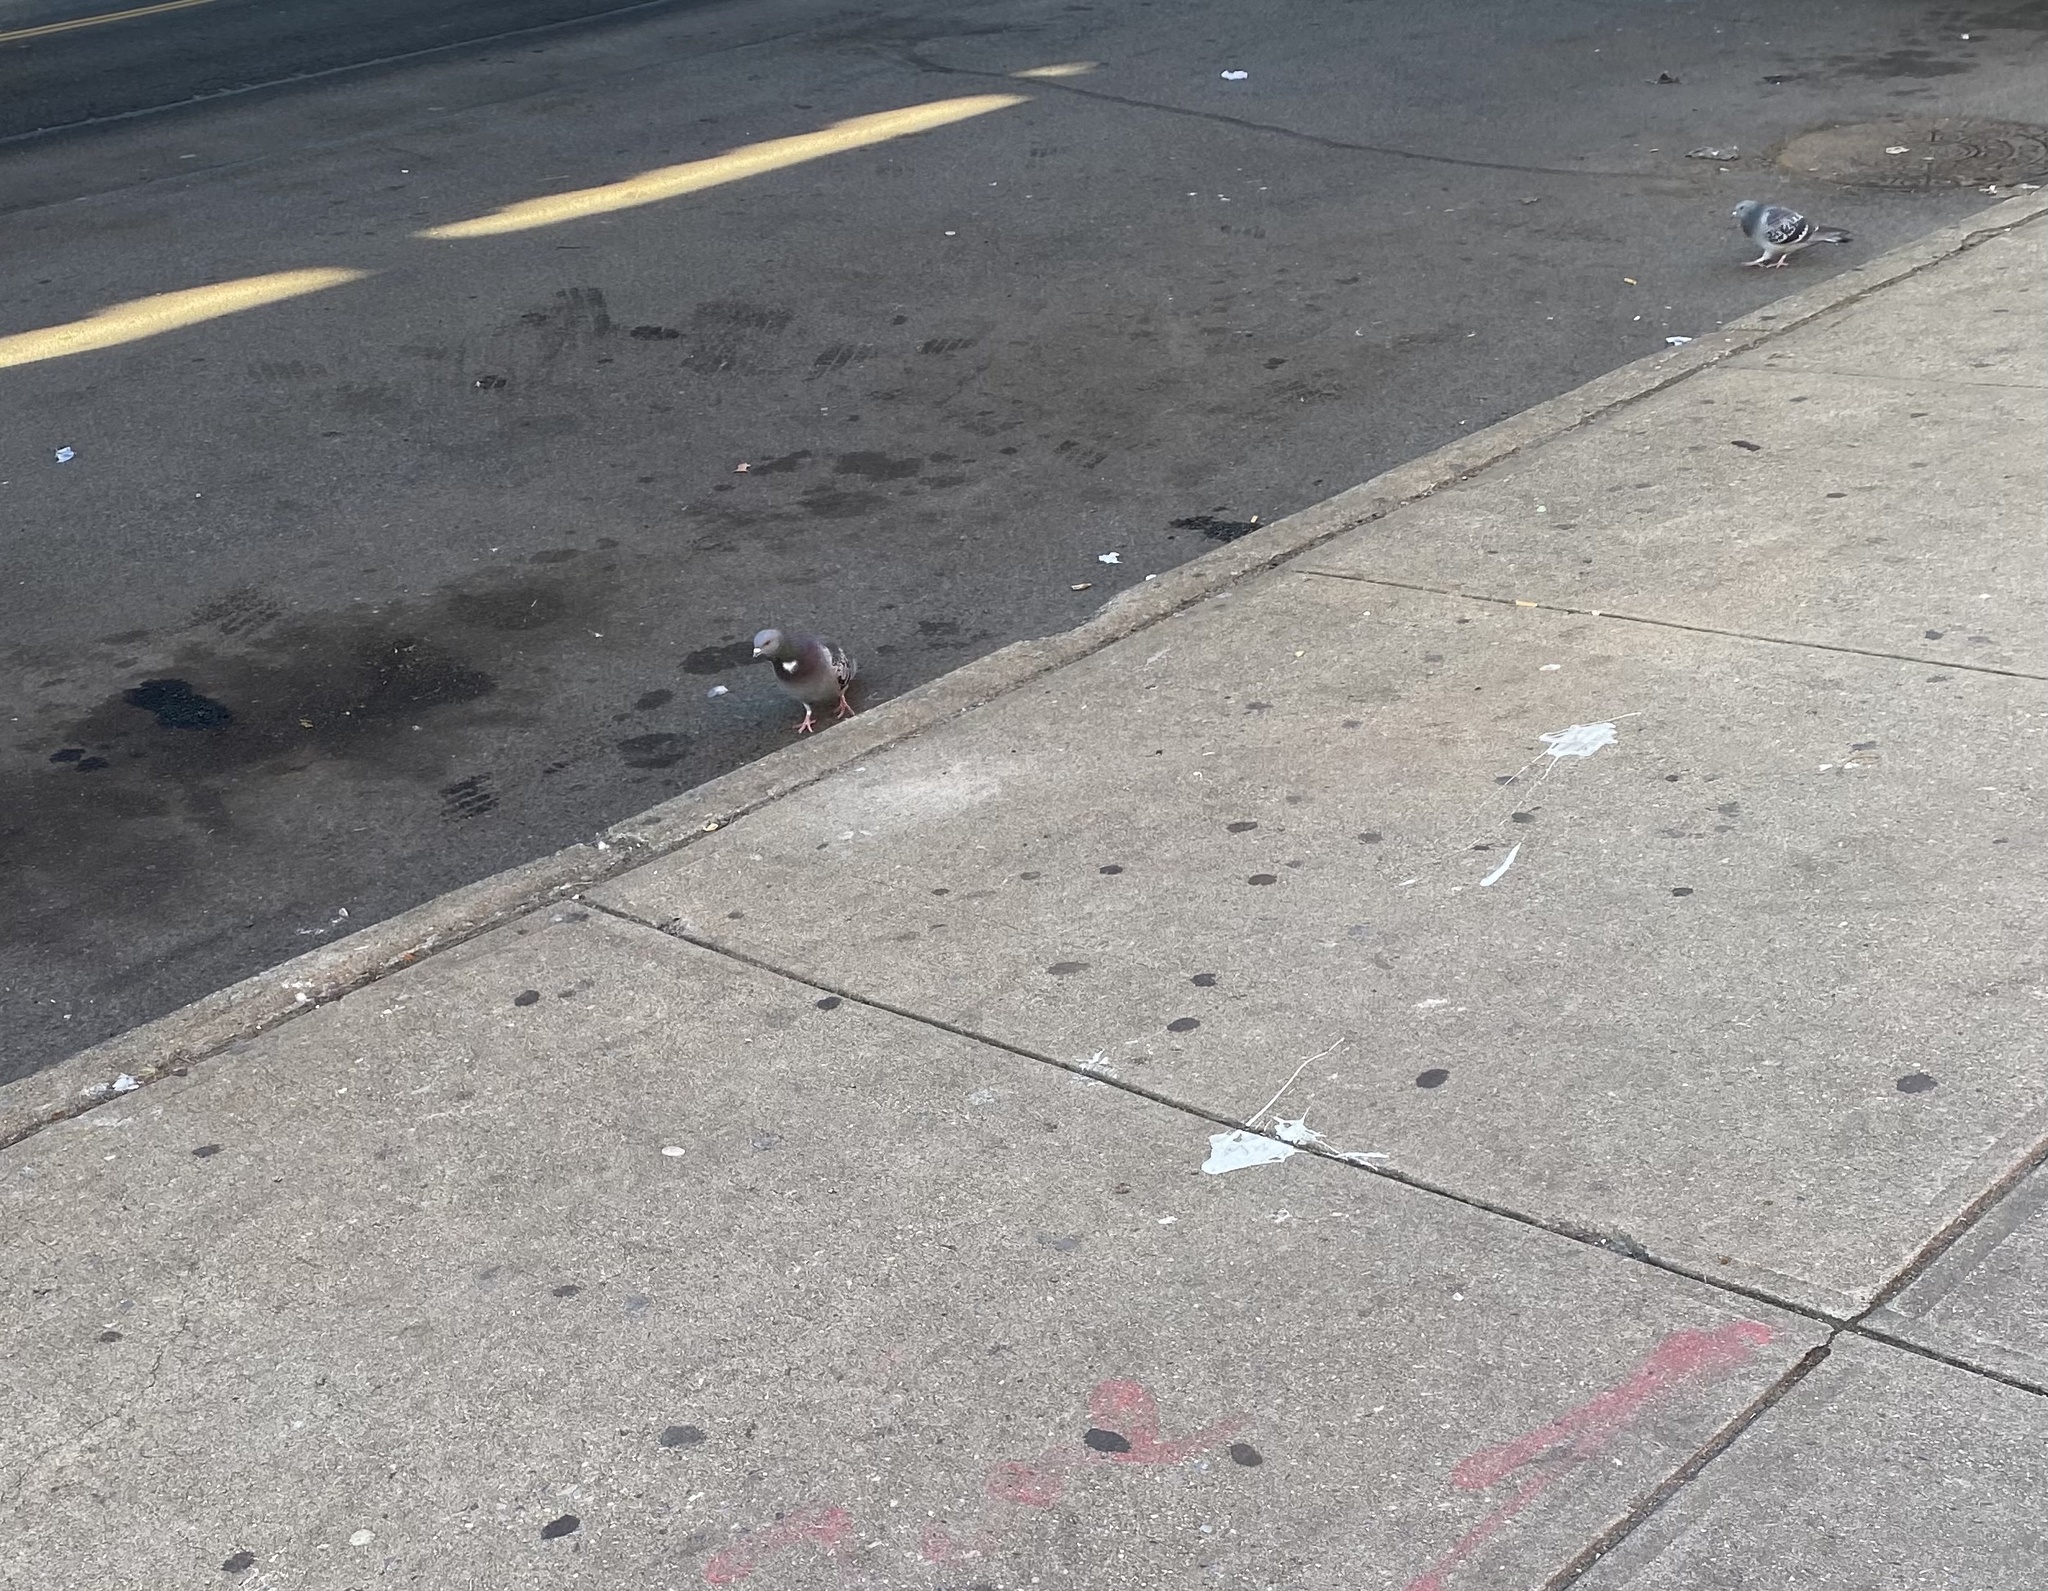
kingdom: Animalia
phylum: Chordata
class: Aves
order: Columbiformes
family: Columbidae
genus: Columba
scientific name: Columba livia
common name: Rock pigeon
